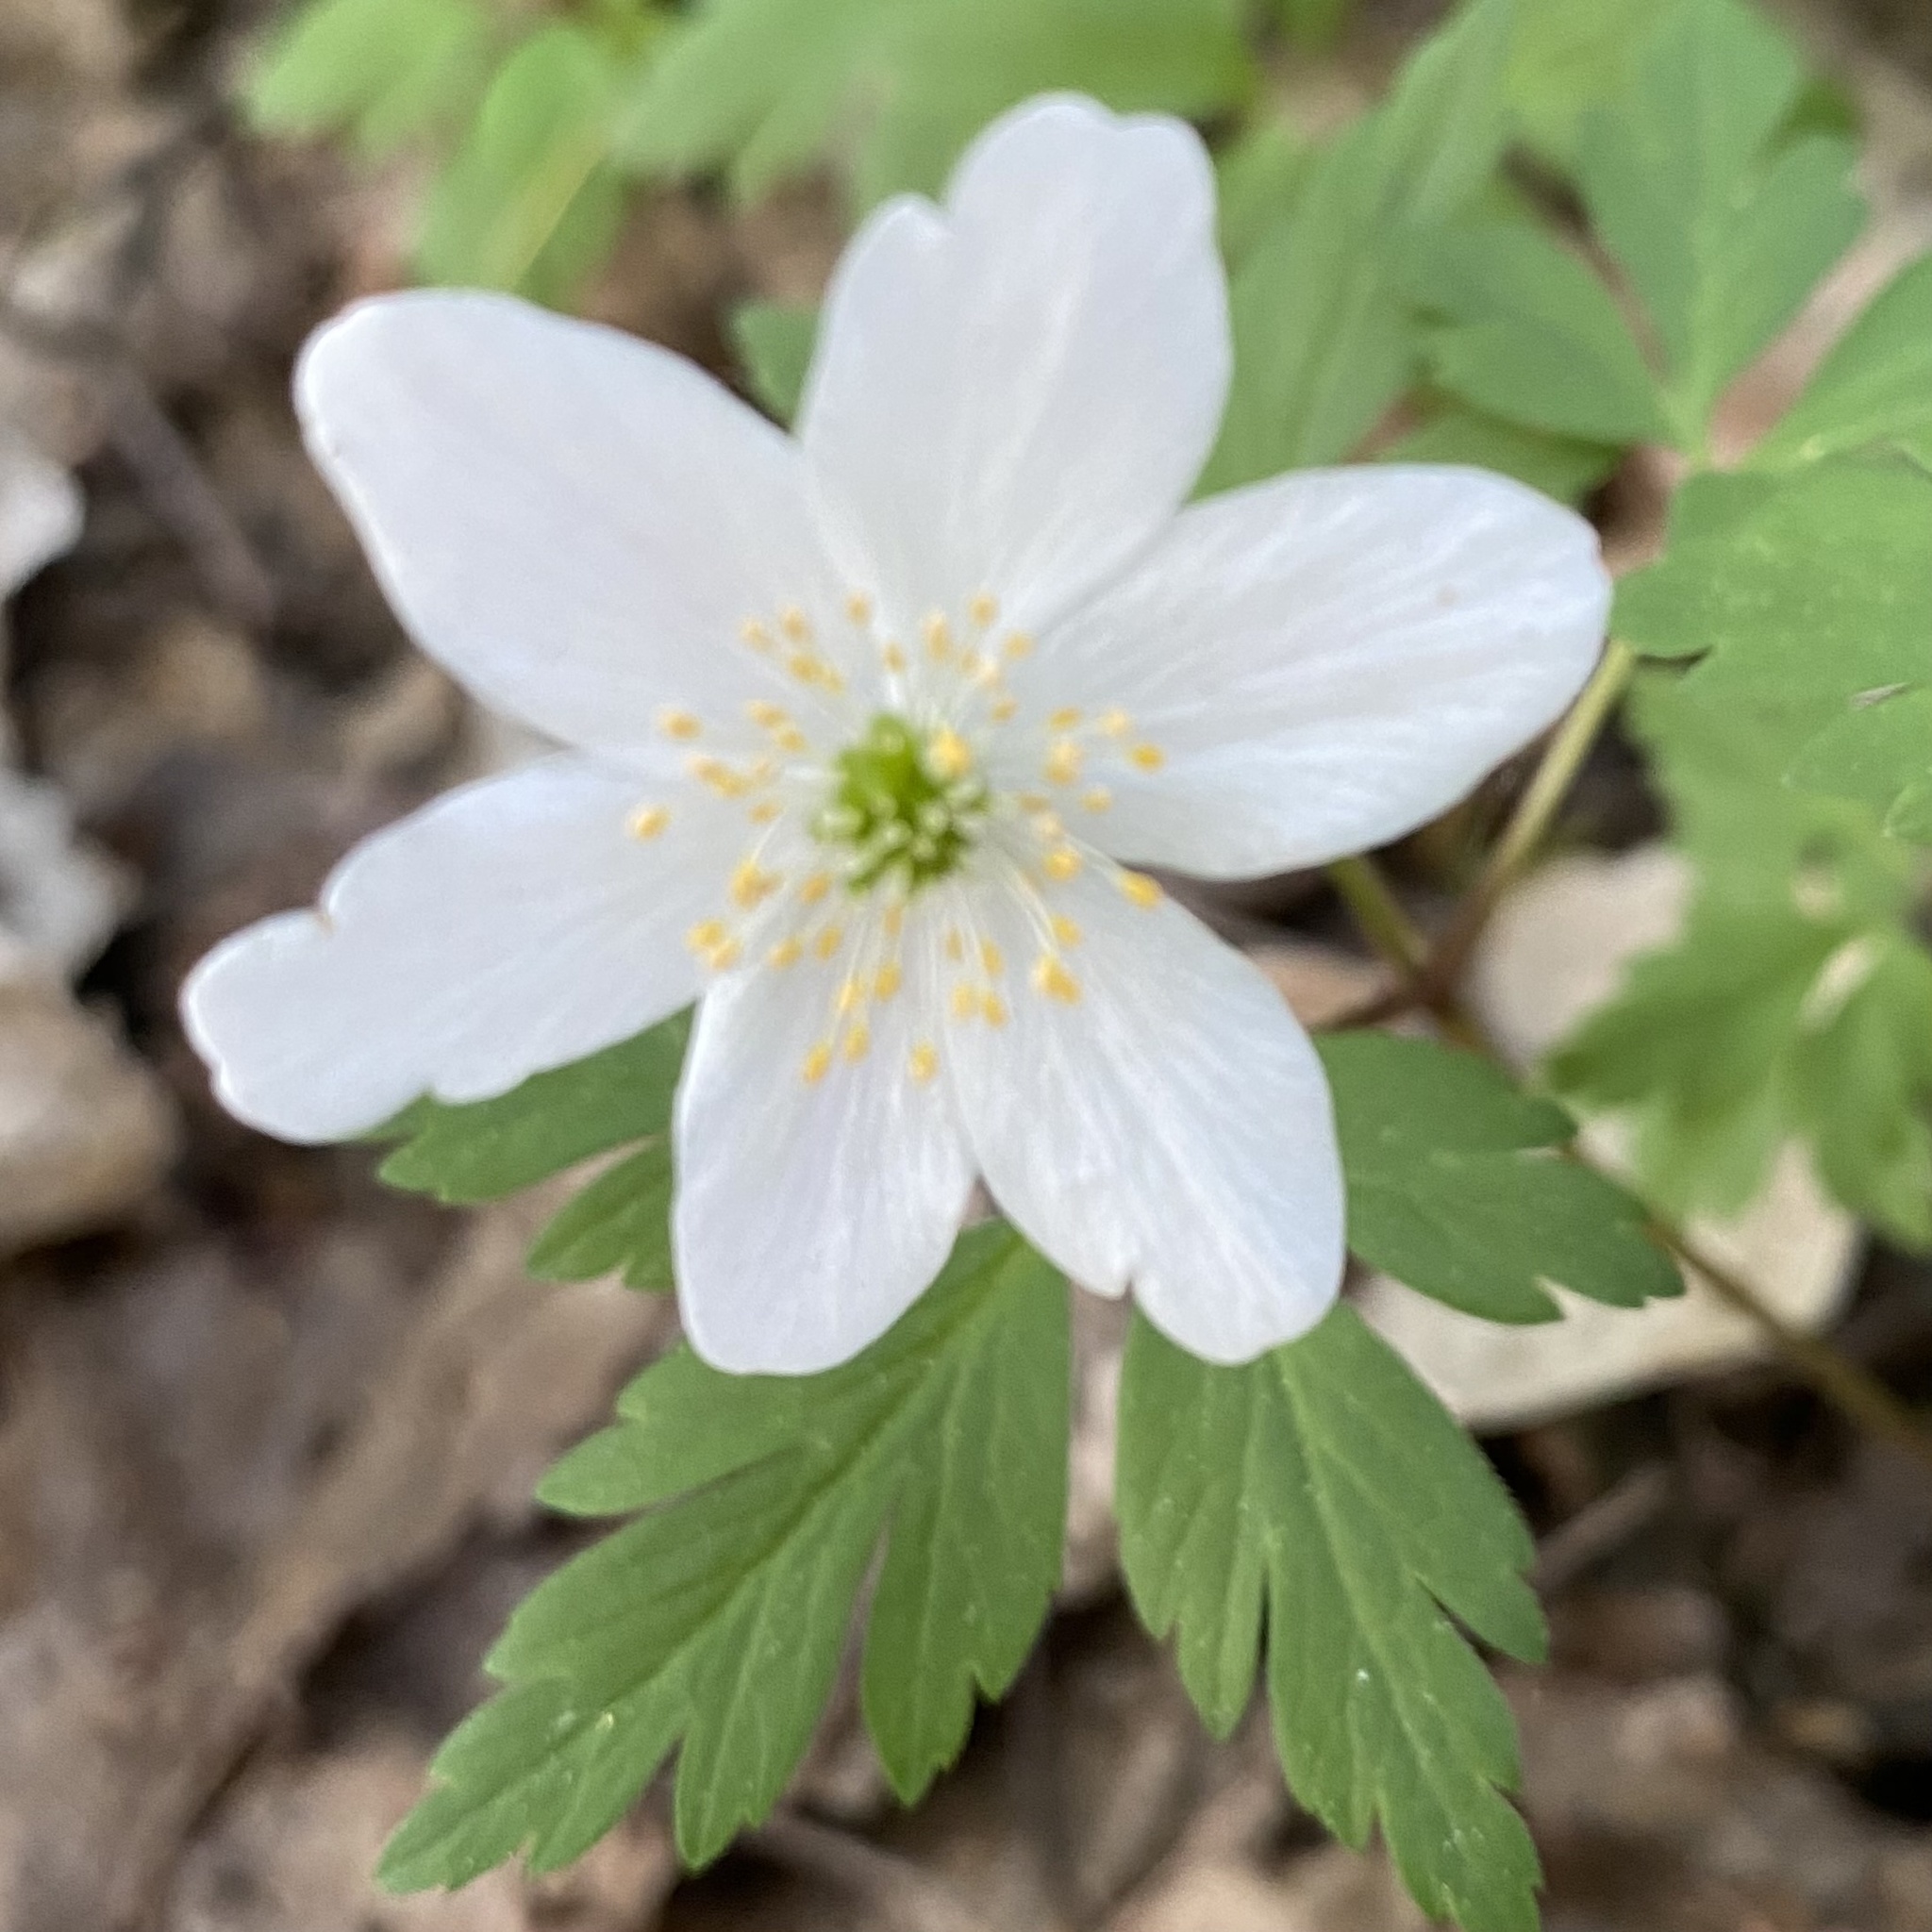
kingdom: Plantae
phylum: Tracheophyta
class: Magnoliopsida
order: Ranunculales
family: Ranunculaceae
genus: Anemone
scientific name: Anemone nemorosa
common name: Wood anemone
